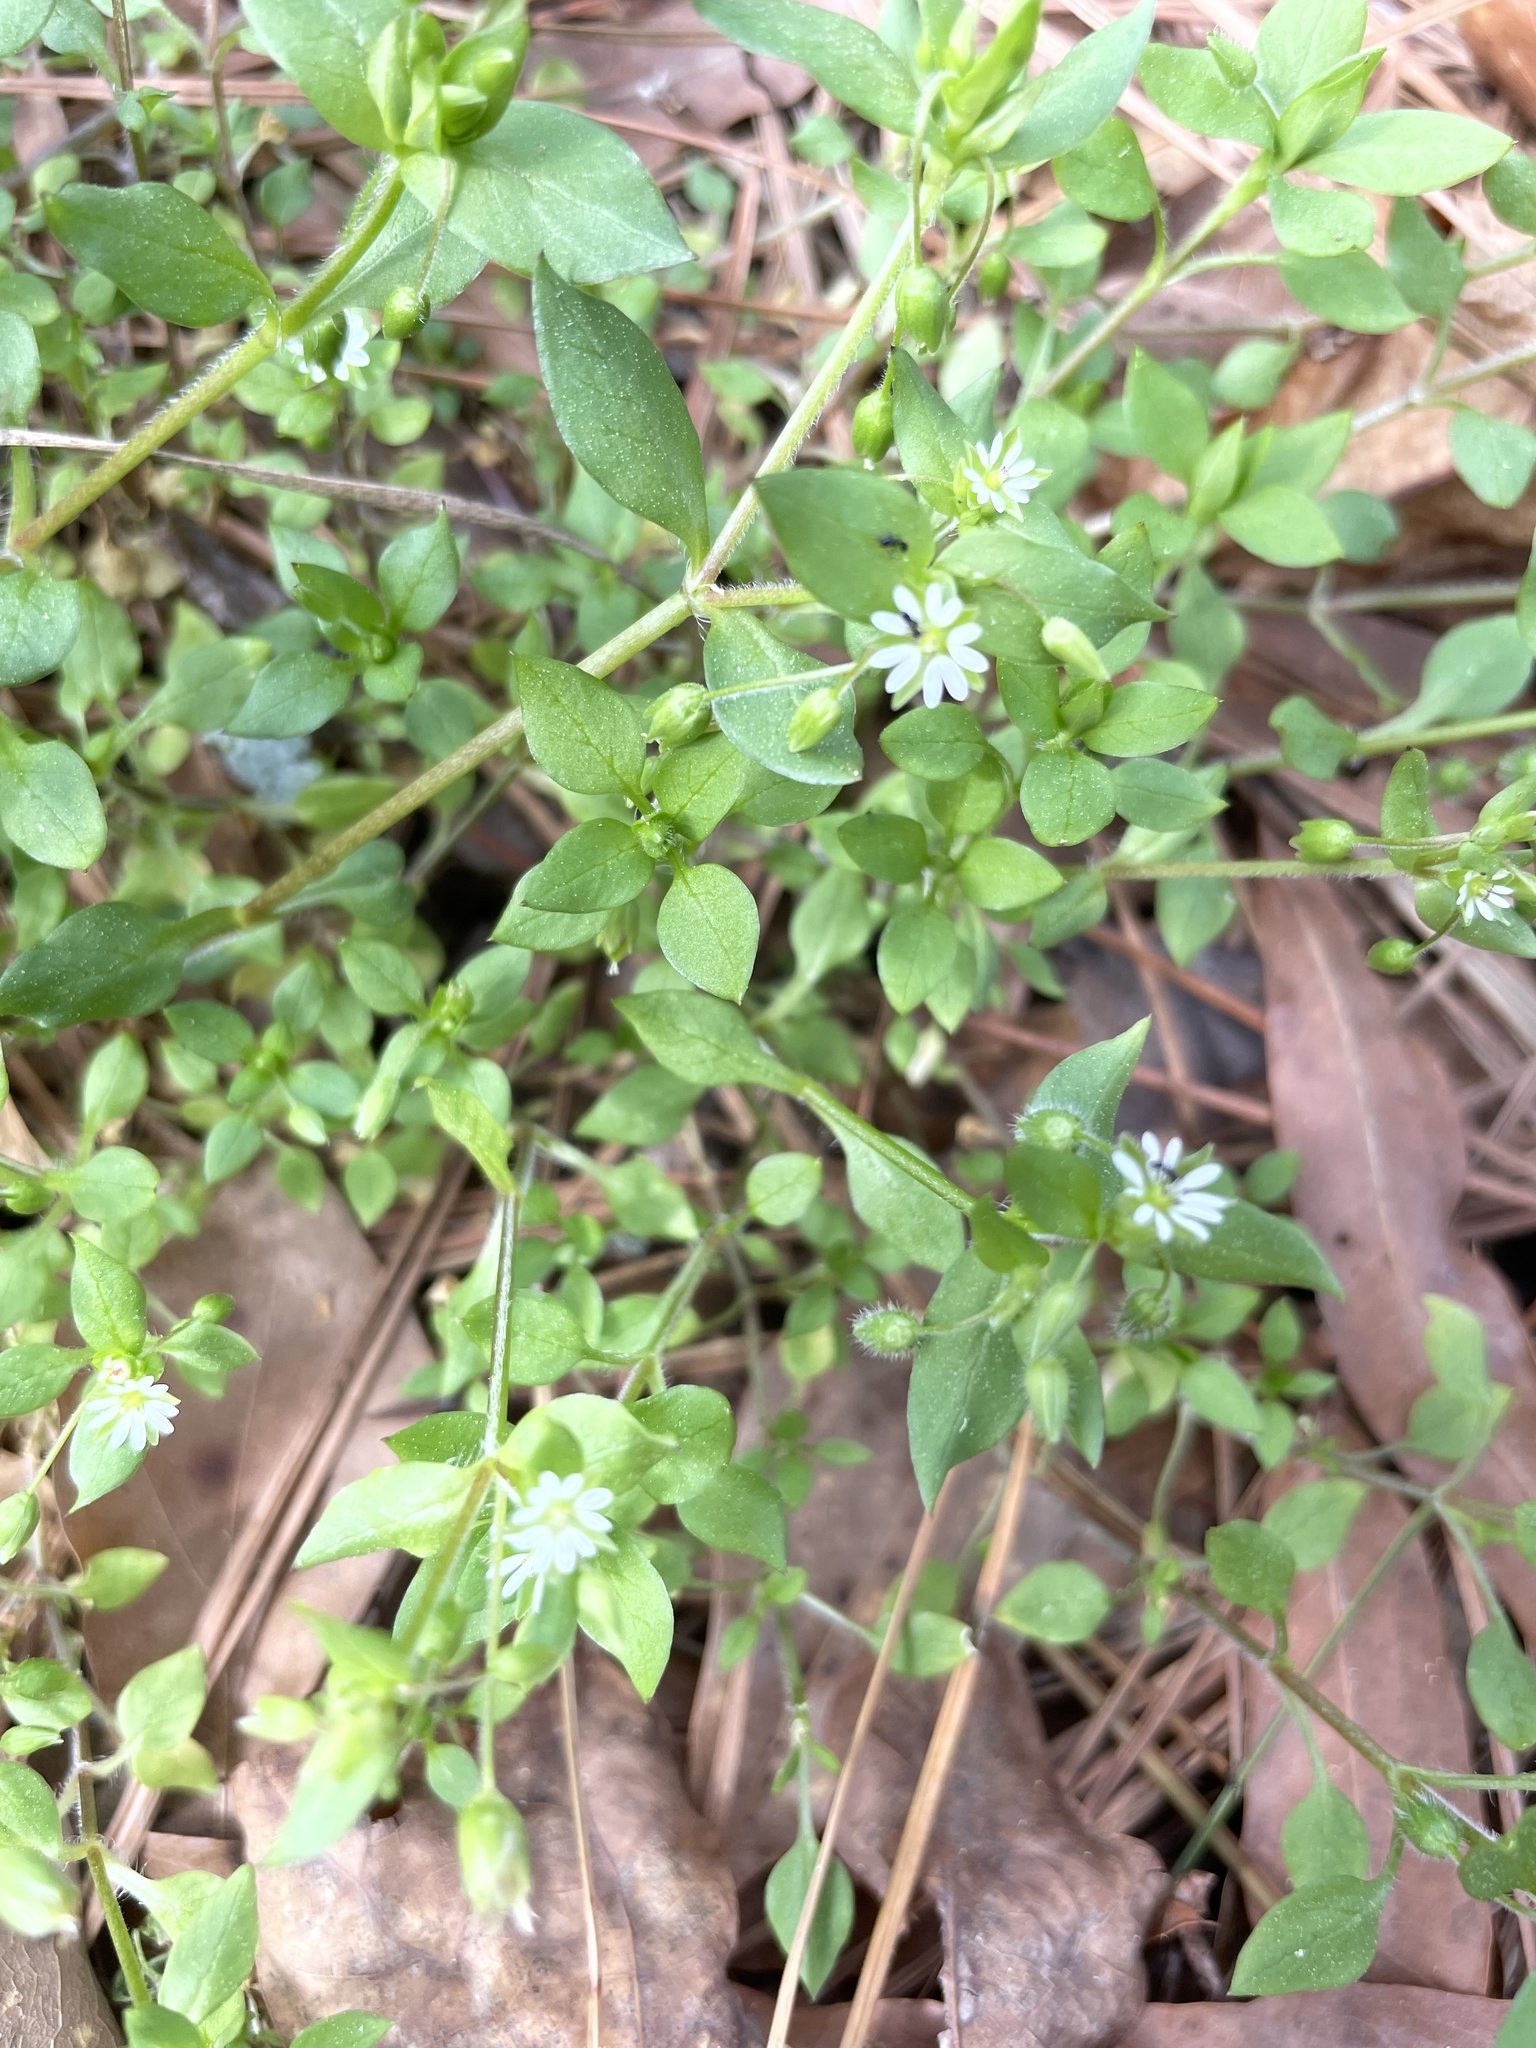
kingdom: Plantae
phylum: Tracheophyta
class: Magnoliopsida
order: Caryophyllales
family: Caryophyllaceae
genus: Stellaria
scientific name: Stellaria media
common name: Common chickweed
